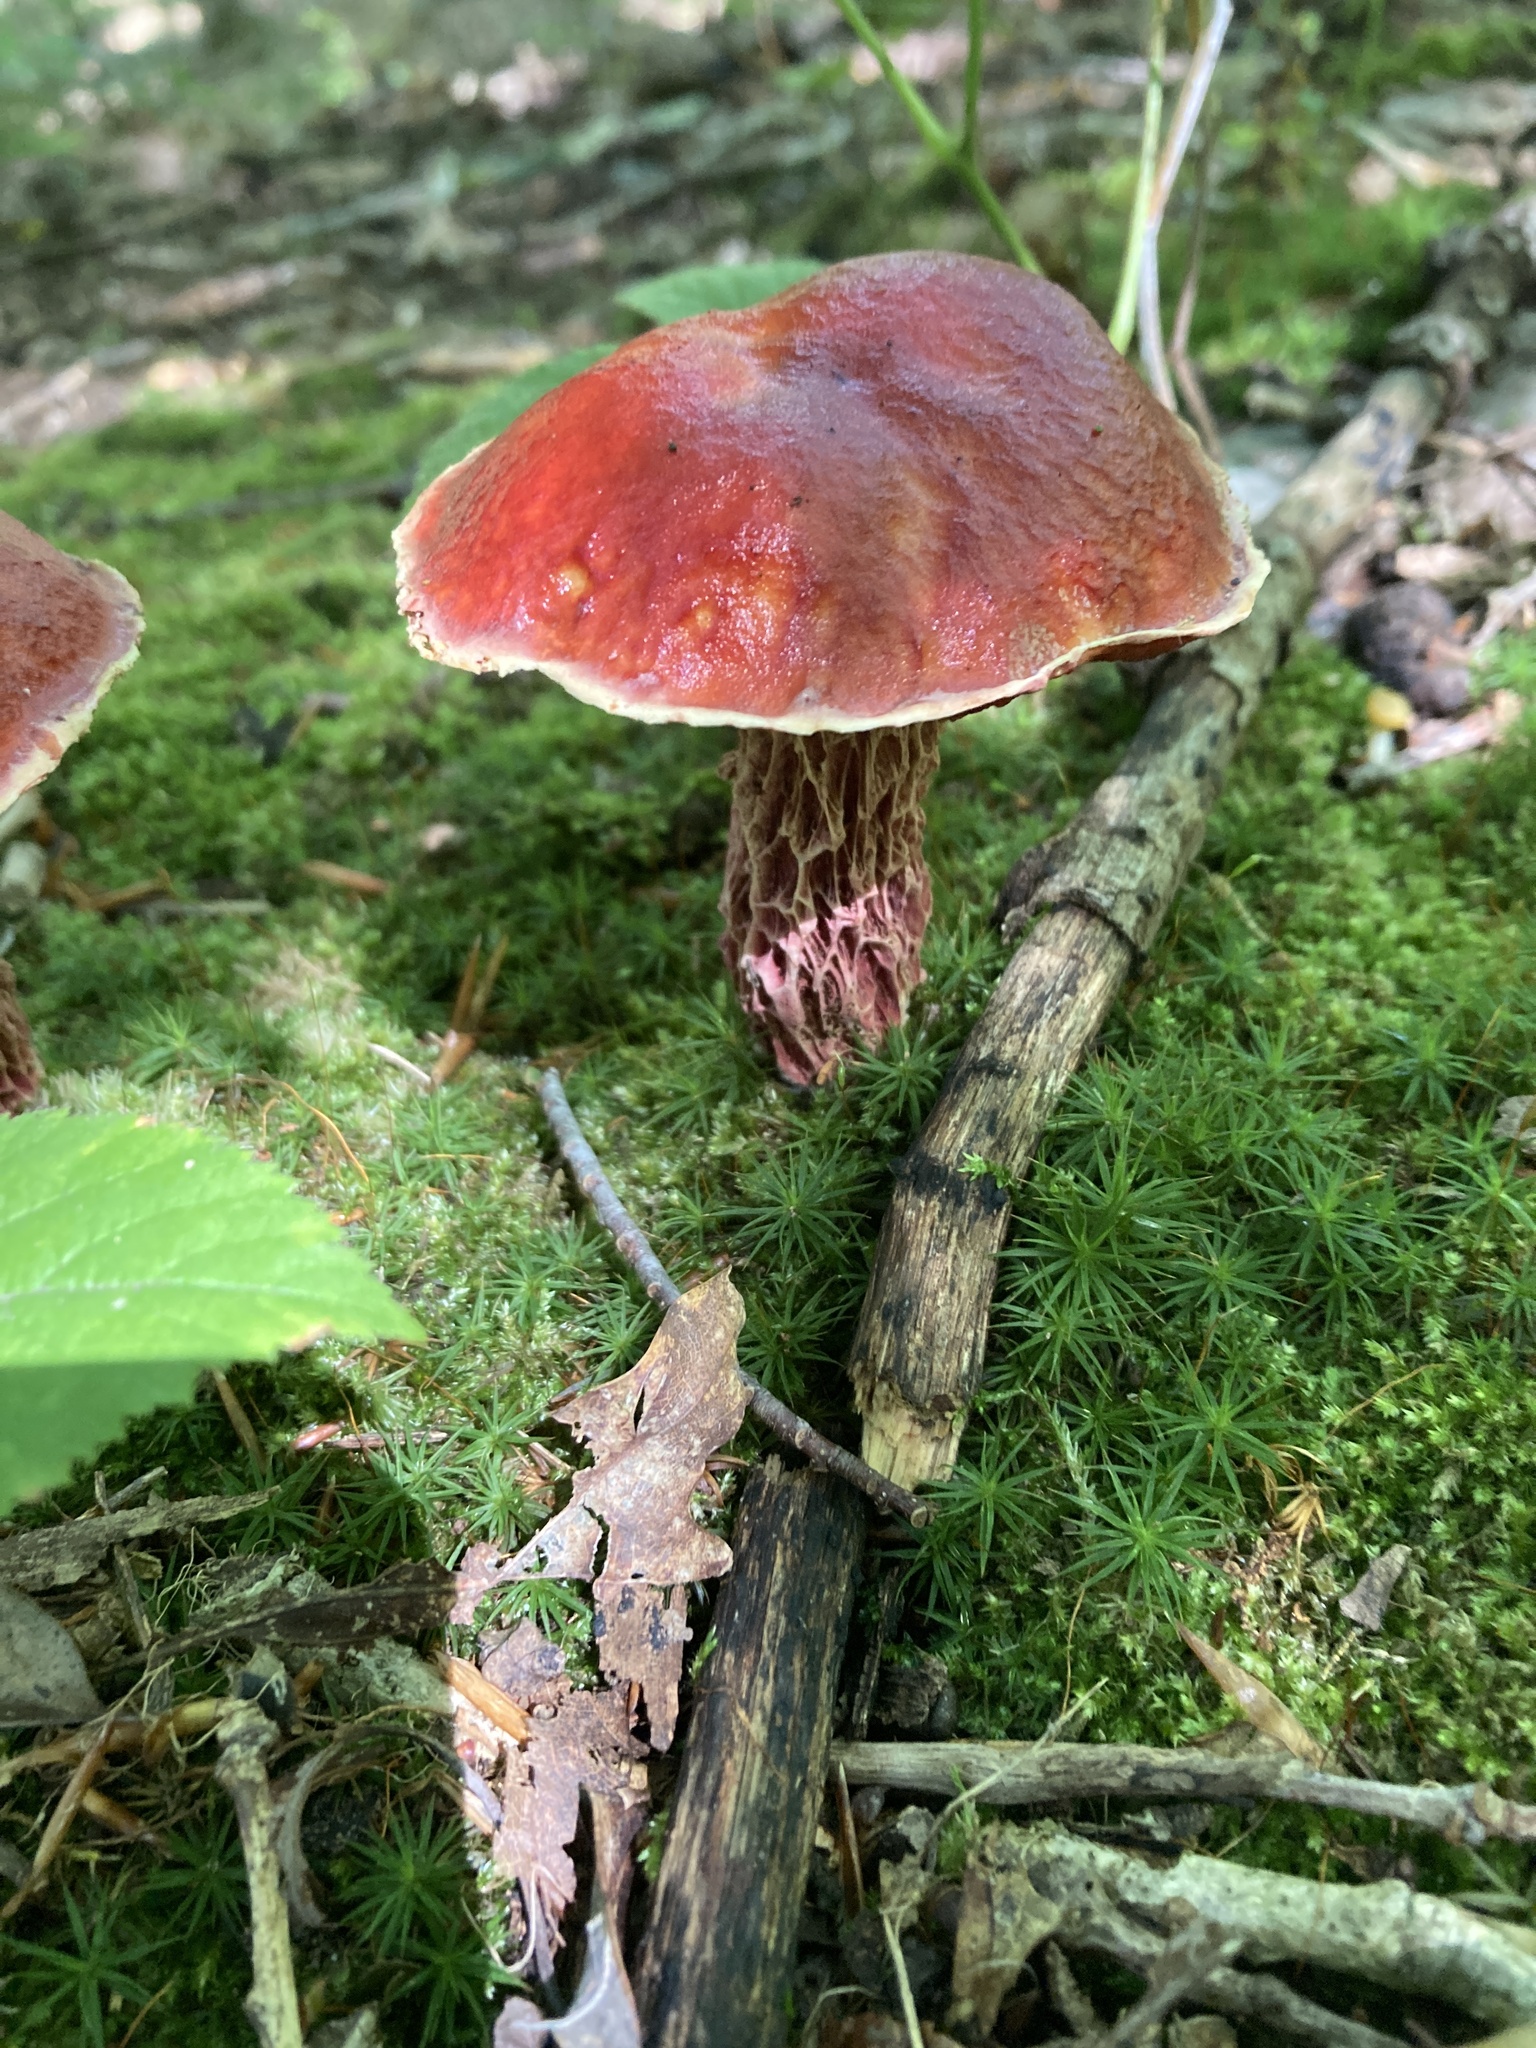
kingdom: Fungi
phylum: Basidiomycota
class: Agaricomycetes
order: Boletales
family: Boletaceae
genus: Butyriboletus
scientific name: Butyriboletus frostii
